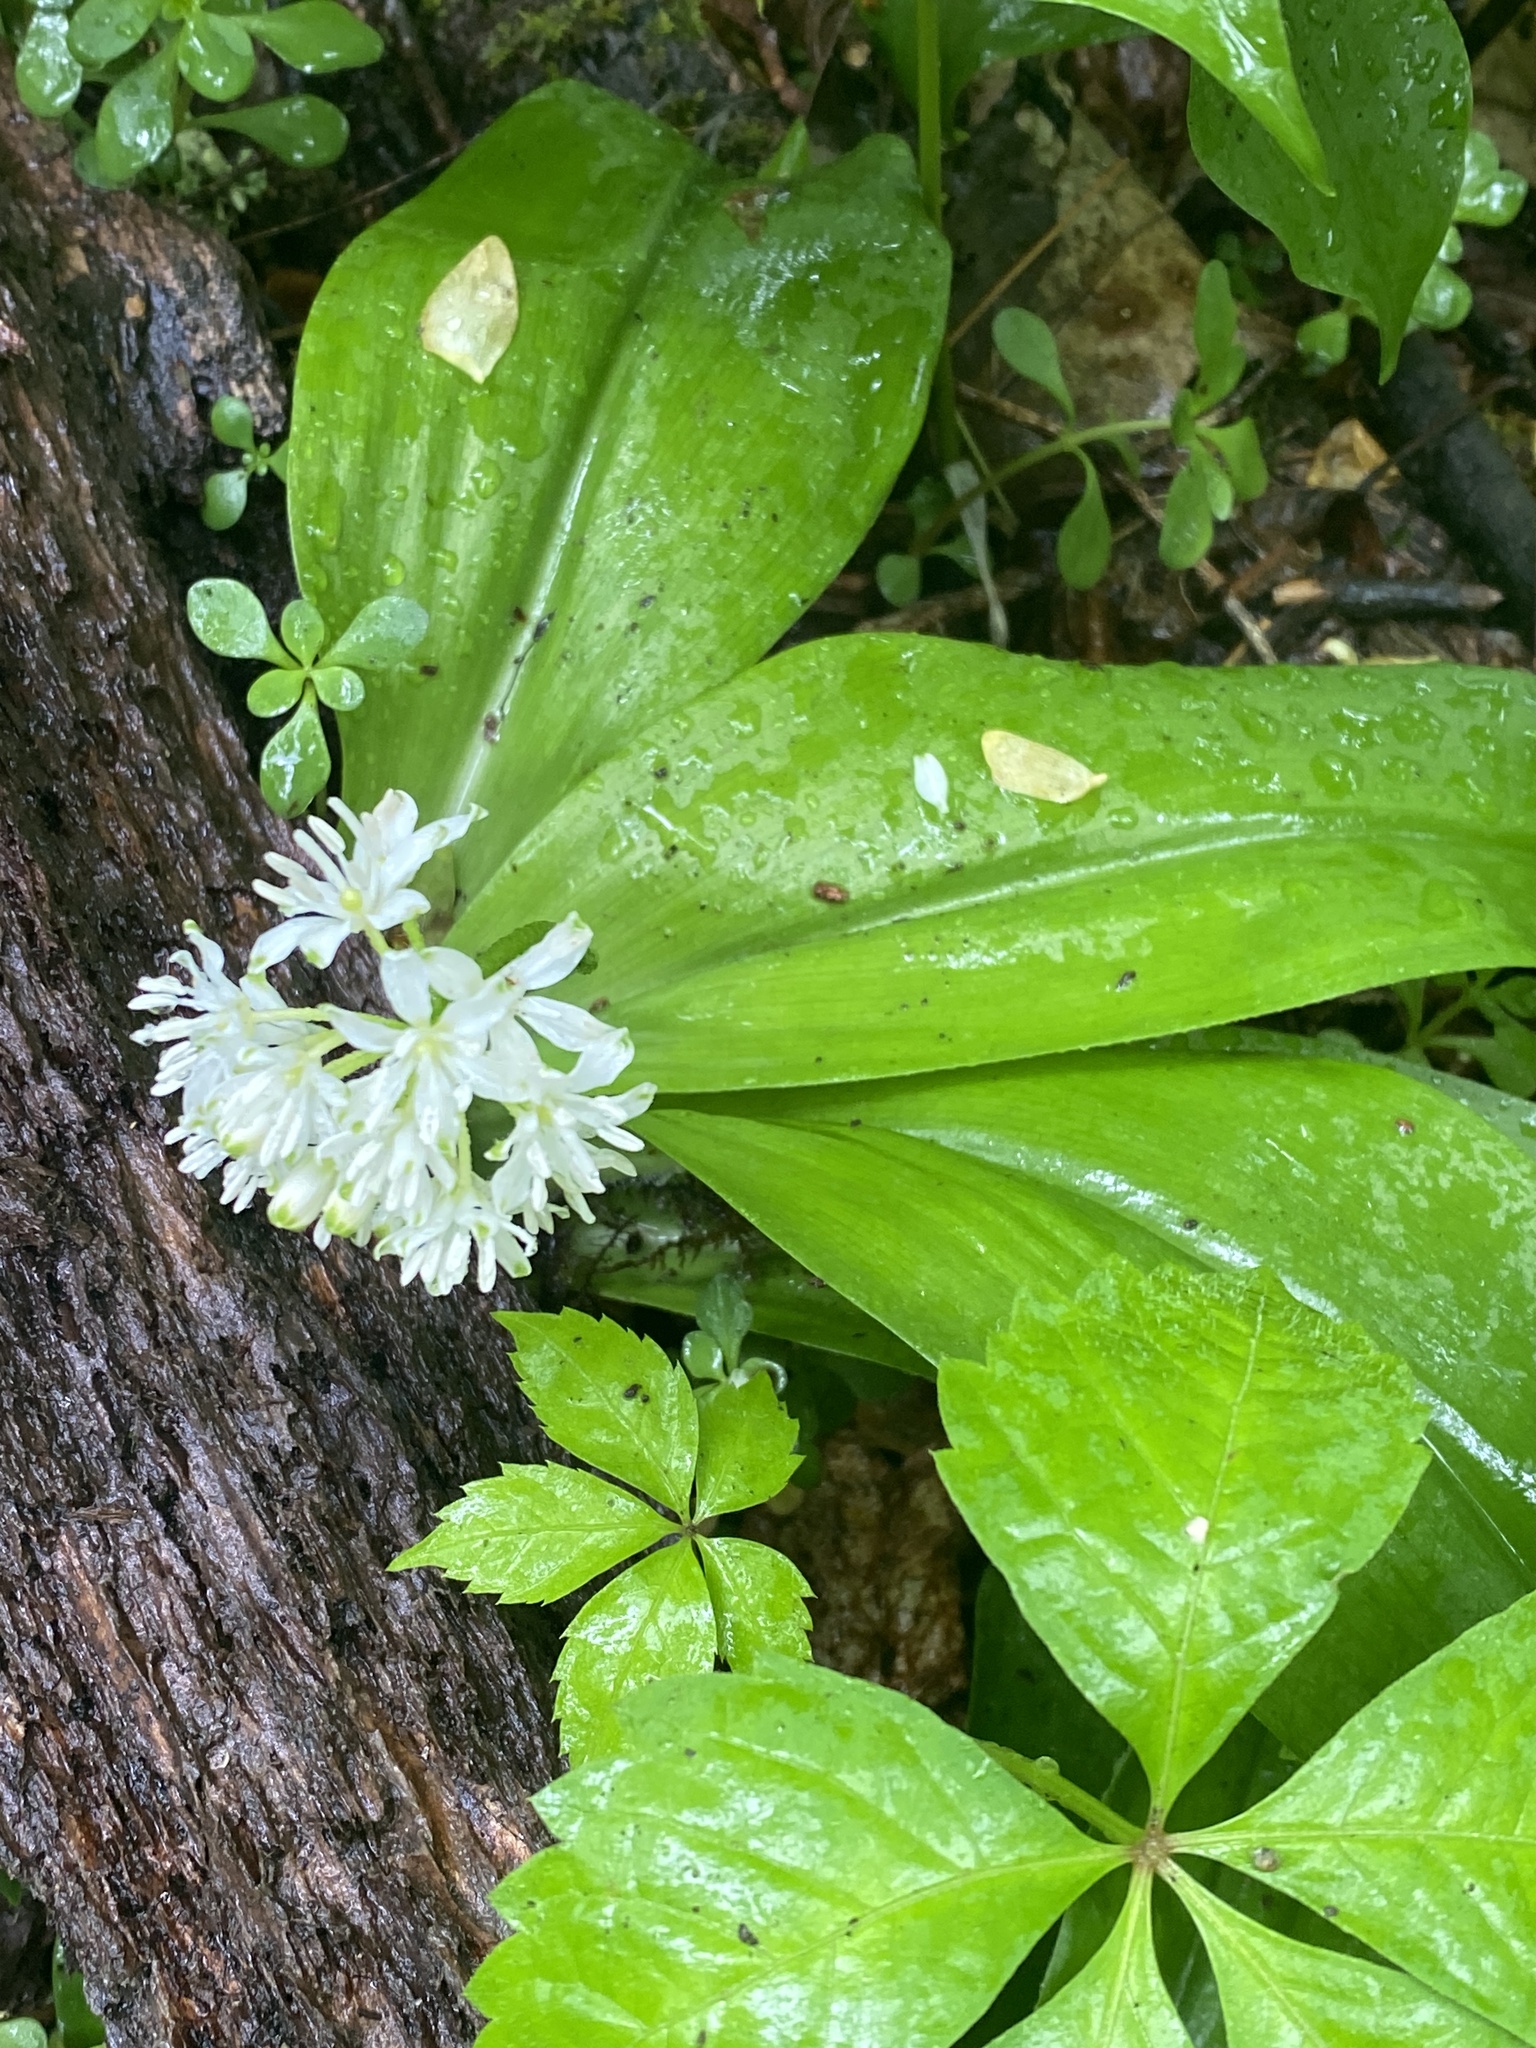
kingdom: Plantae
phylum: Tracheophyta
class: Liliopsida
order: Liliales
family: Liliaceae
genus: Clintonia
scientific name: Clintonia umbellulata
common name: Speckle wood-lily
